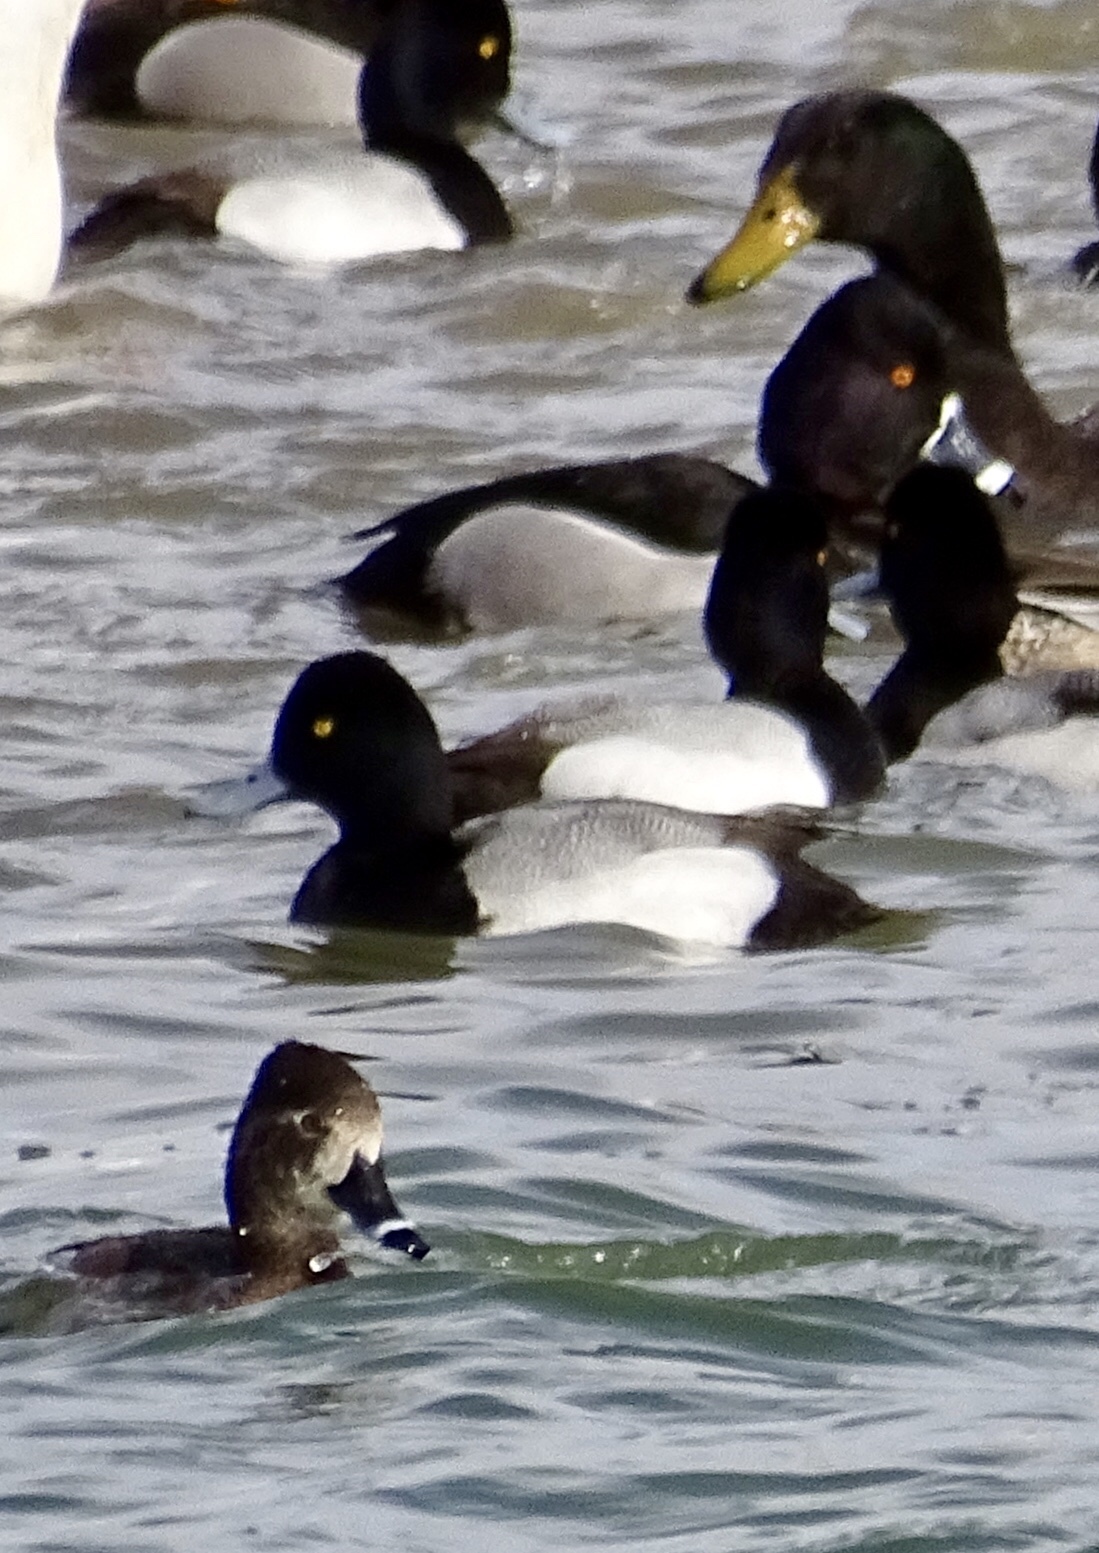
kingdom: Animalia
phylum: Chordata
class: Aves
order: Anseriformes
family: Anatidae
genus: Aythya
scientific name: Aythya affinis
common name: Lesser scaup
